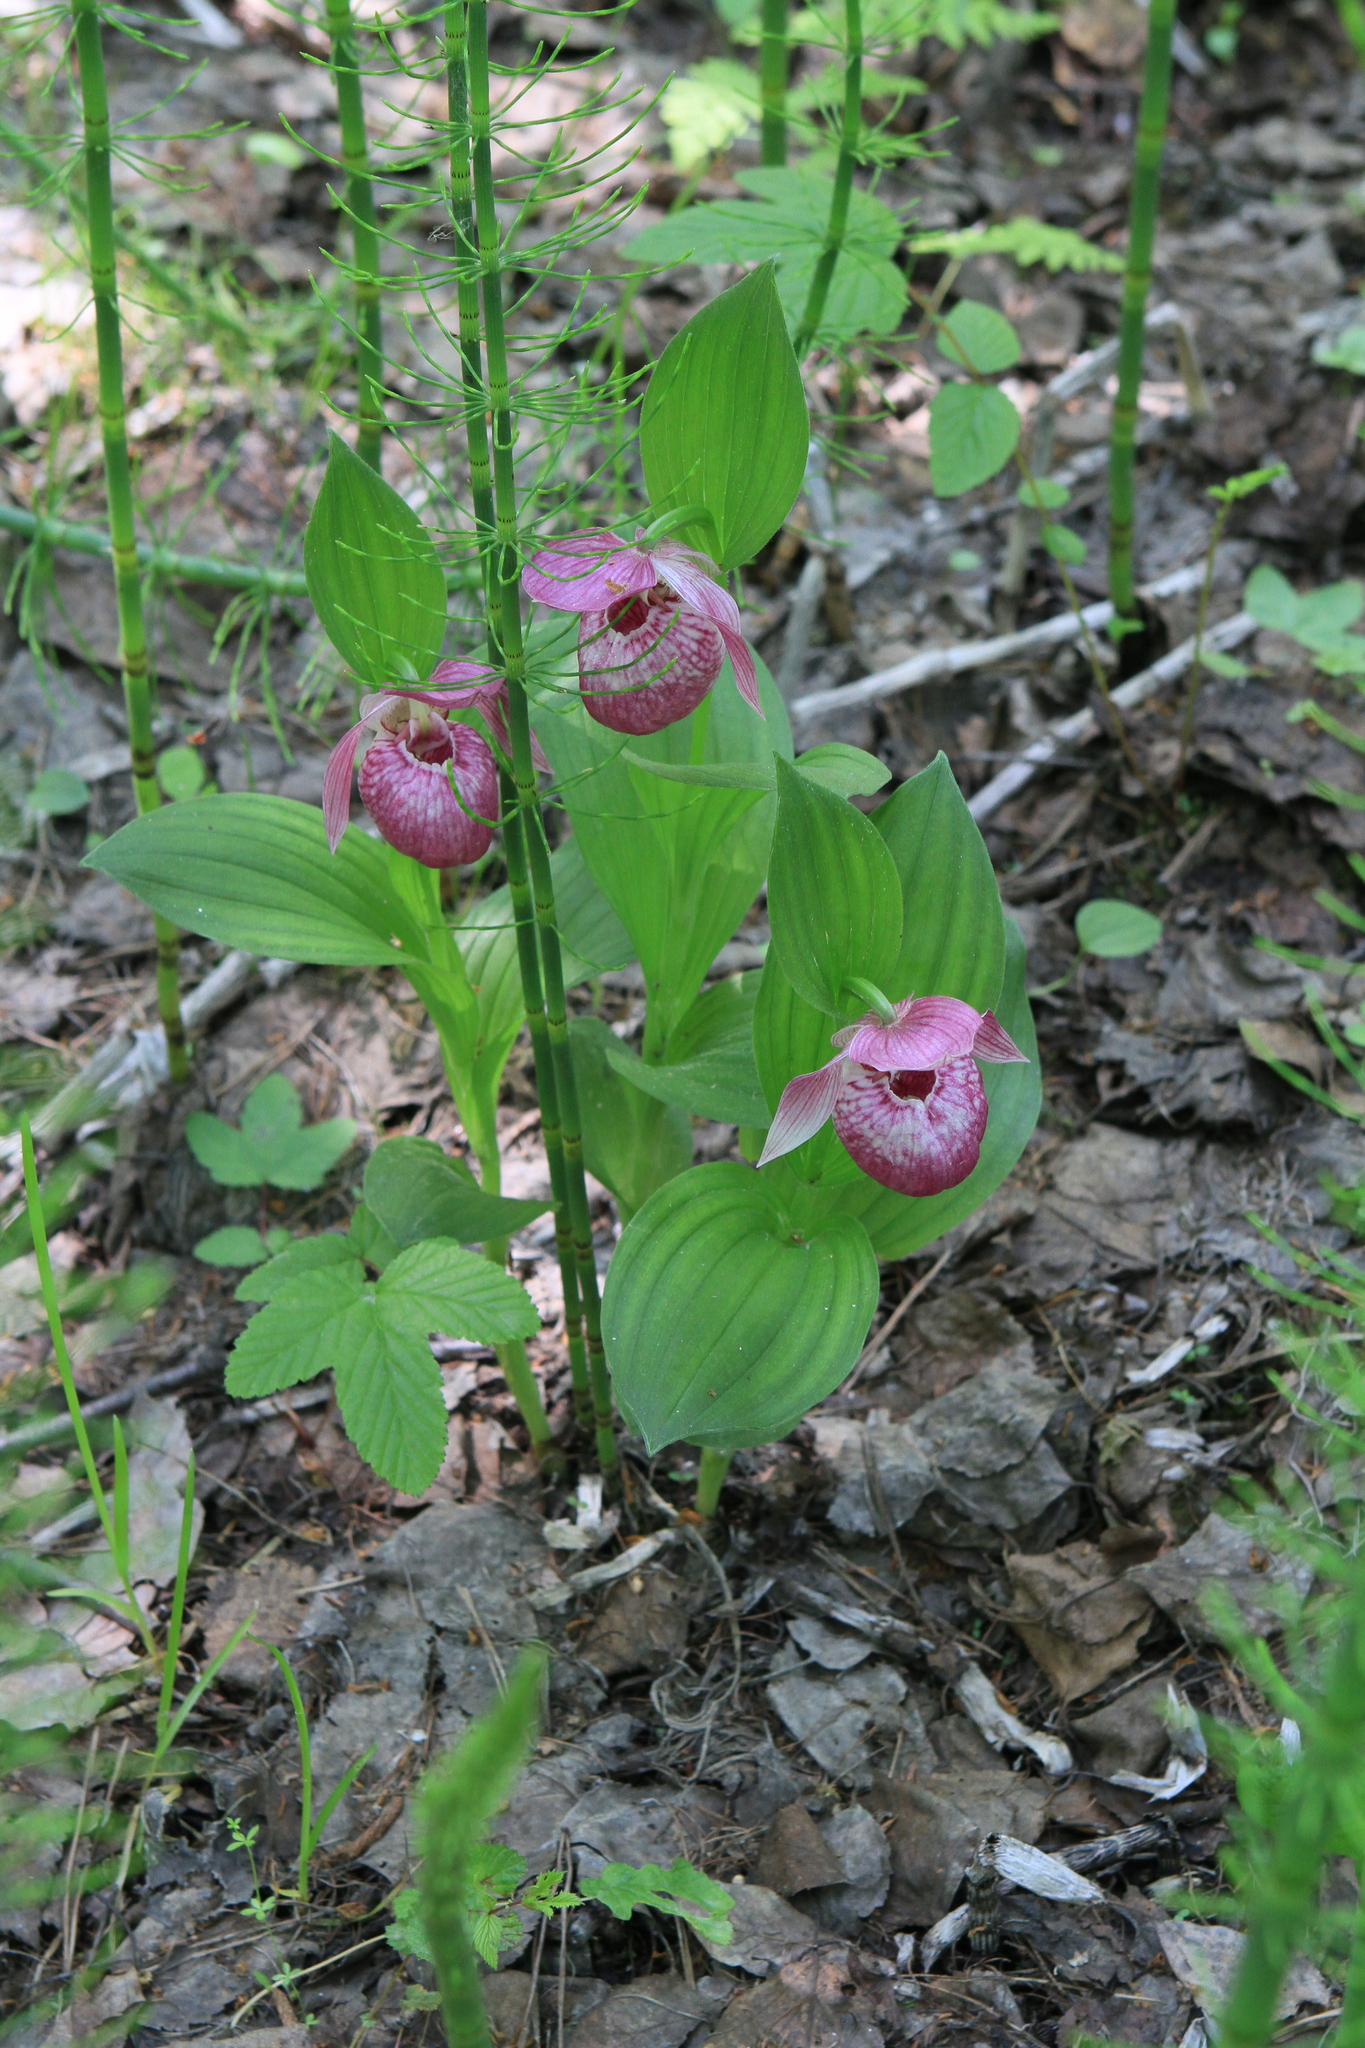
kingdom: Plantae
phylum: Tracheophyta
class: Liliopsida
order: Asparagales
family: Orchidaceae
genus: Cypripedium
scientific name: Cypripedium macranthos
